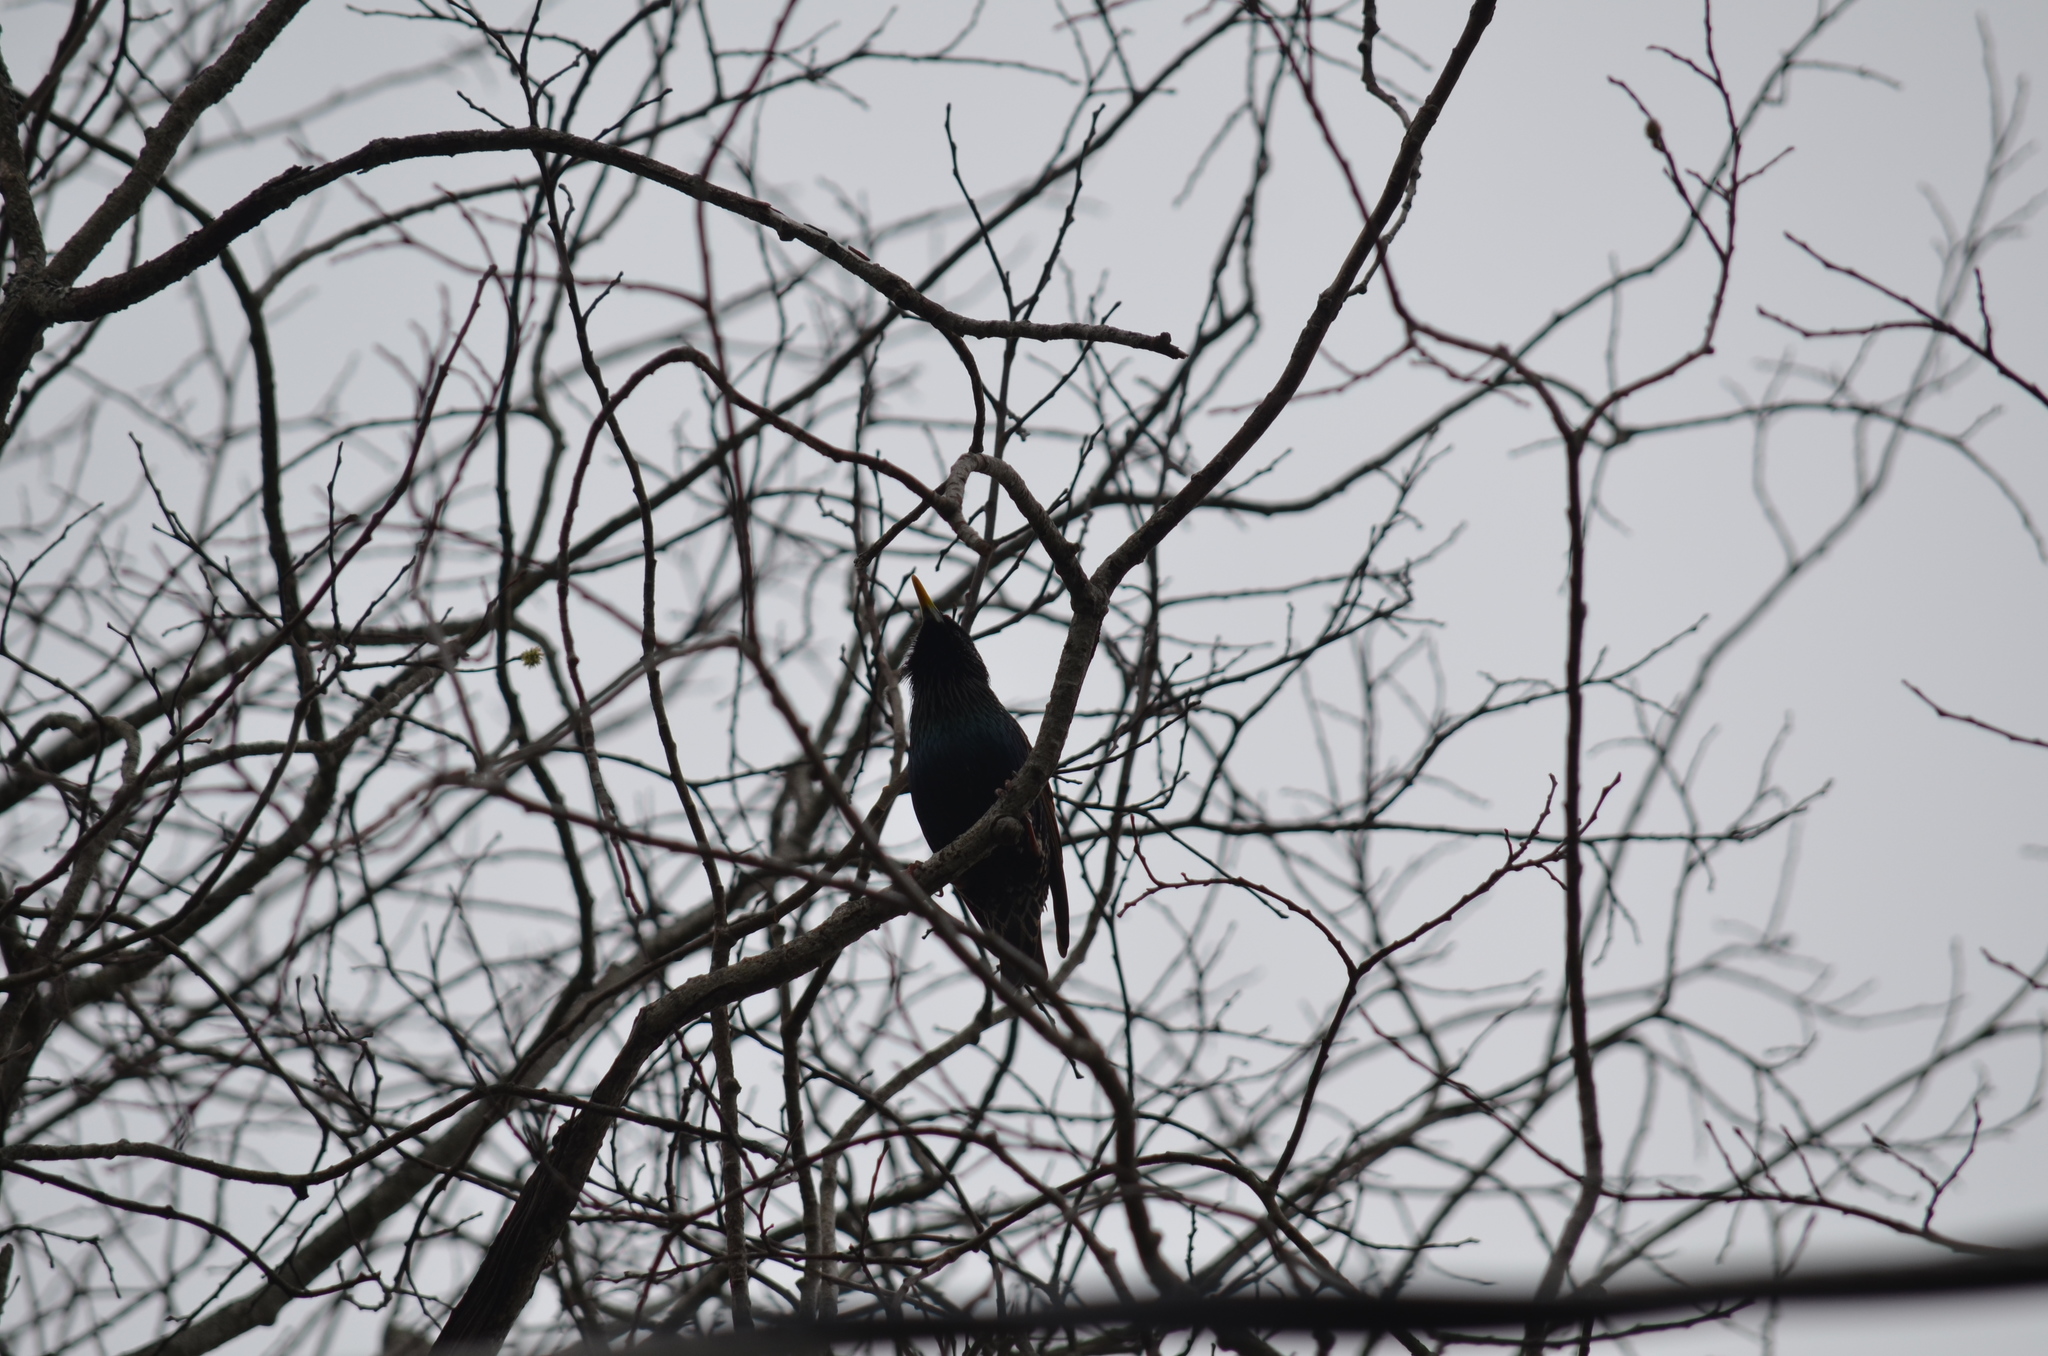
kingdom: Animalia
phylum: Chordata
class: Aves
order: Passeriformes
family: Sturnidae
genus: Sturnus
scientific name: Sturnus vulgaris
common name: Common starling
